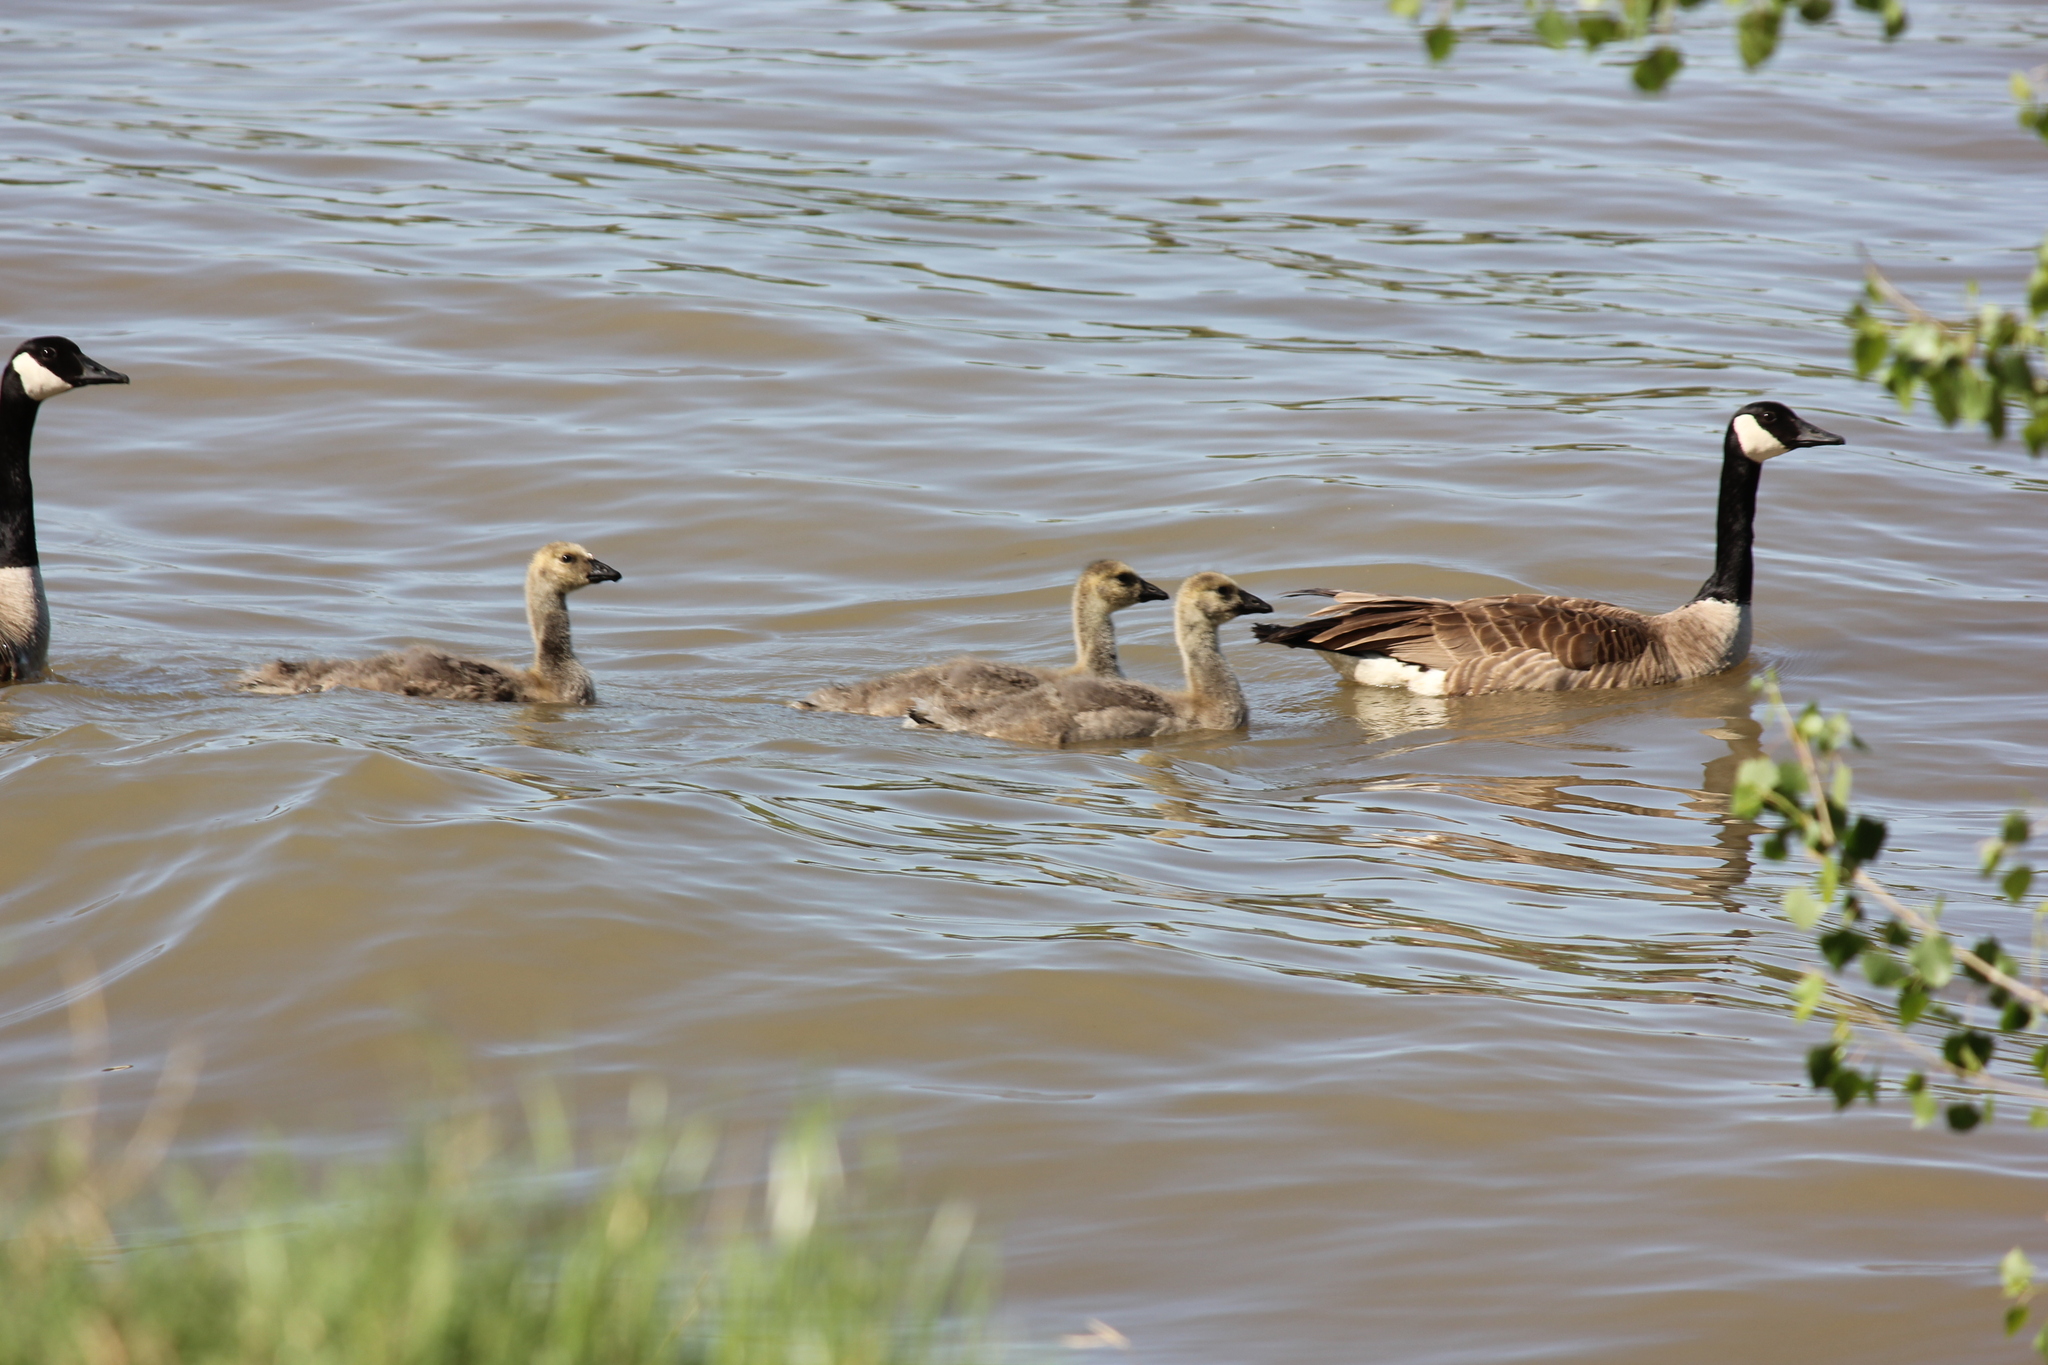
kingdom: Animalia
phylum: Chordata
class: Aves
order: Anseriformes
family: Anatidae
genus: Branta
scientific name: Branta canadensis
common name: Canada goose
